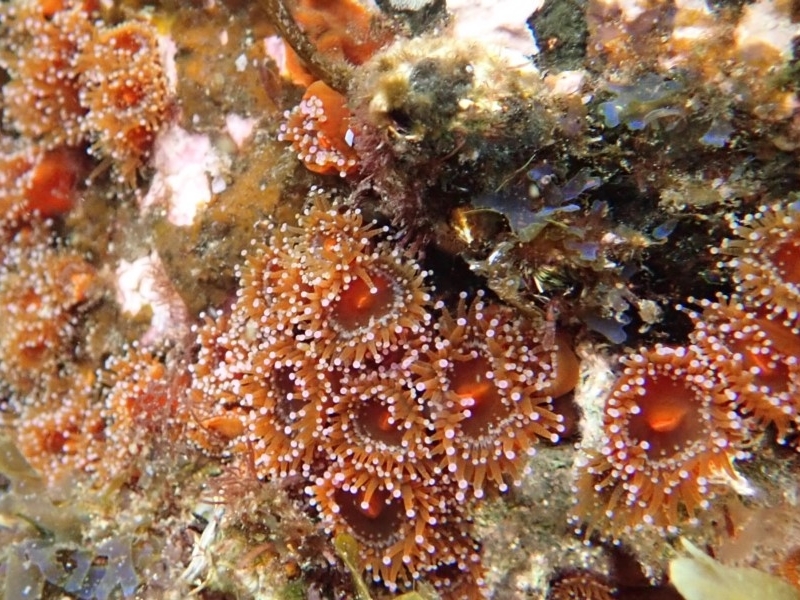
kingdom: Animalia
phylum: Cnidaria
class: Anthozoa
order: Corallimorpharia
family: Corallimorphidae
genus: Corynactis
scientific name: Corynactis australis
